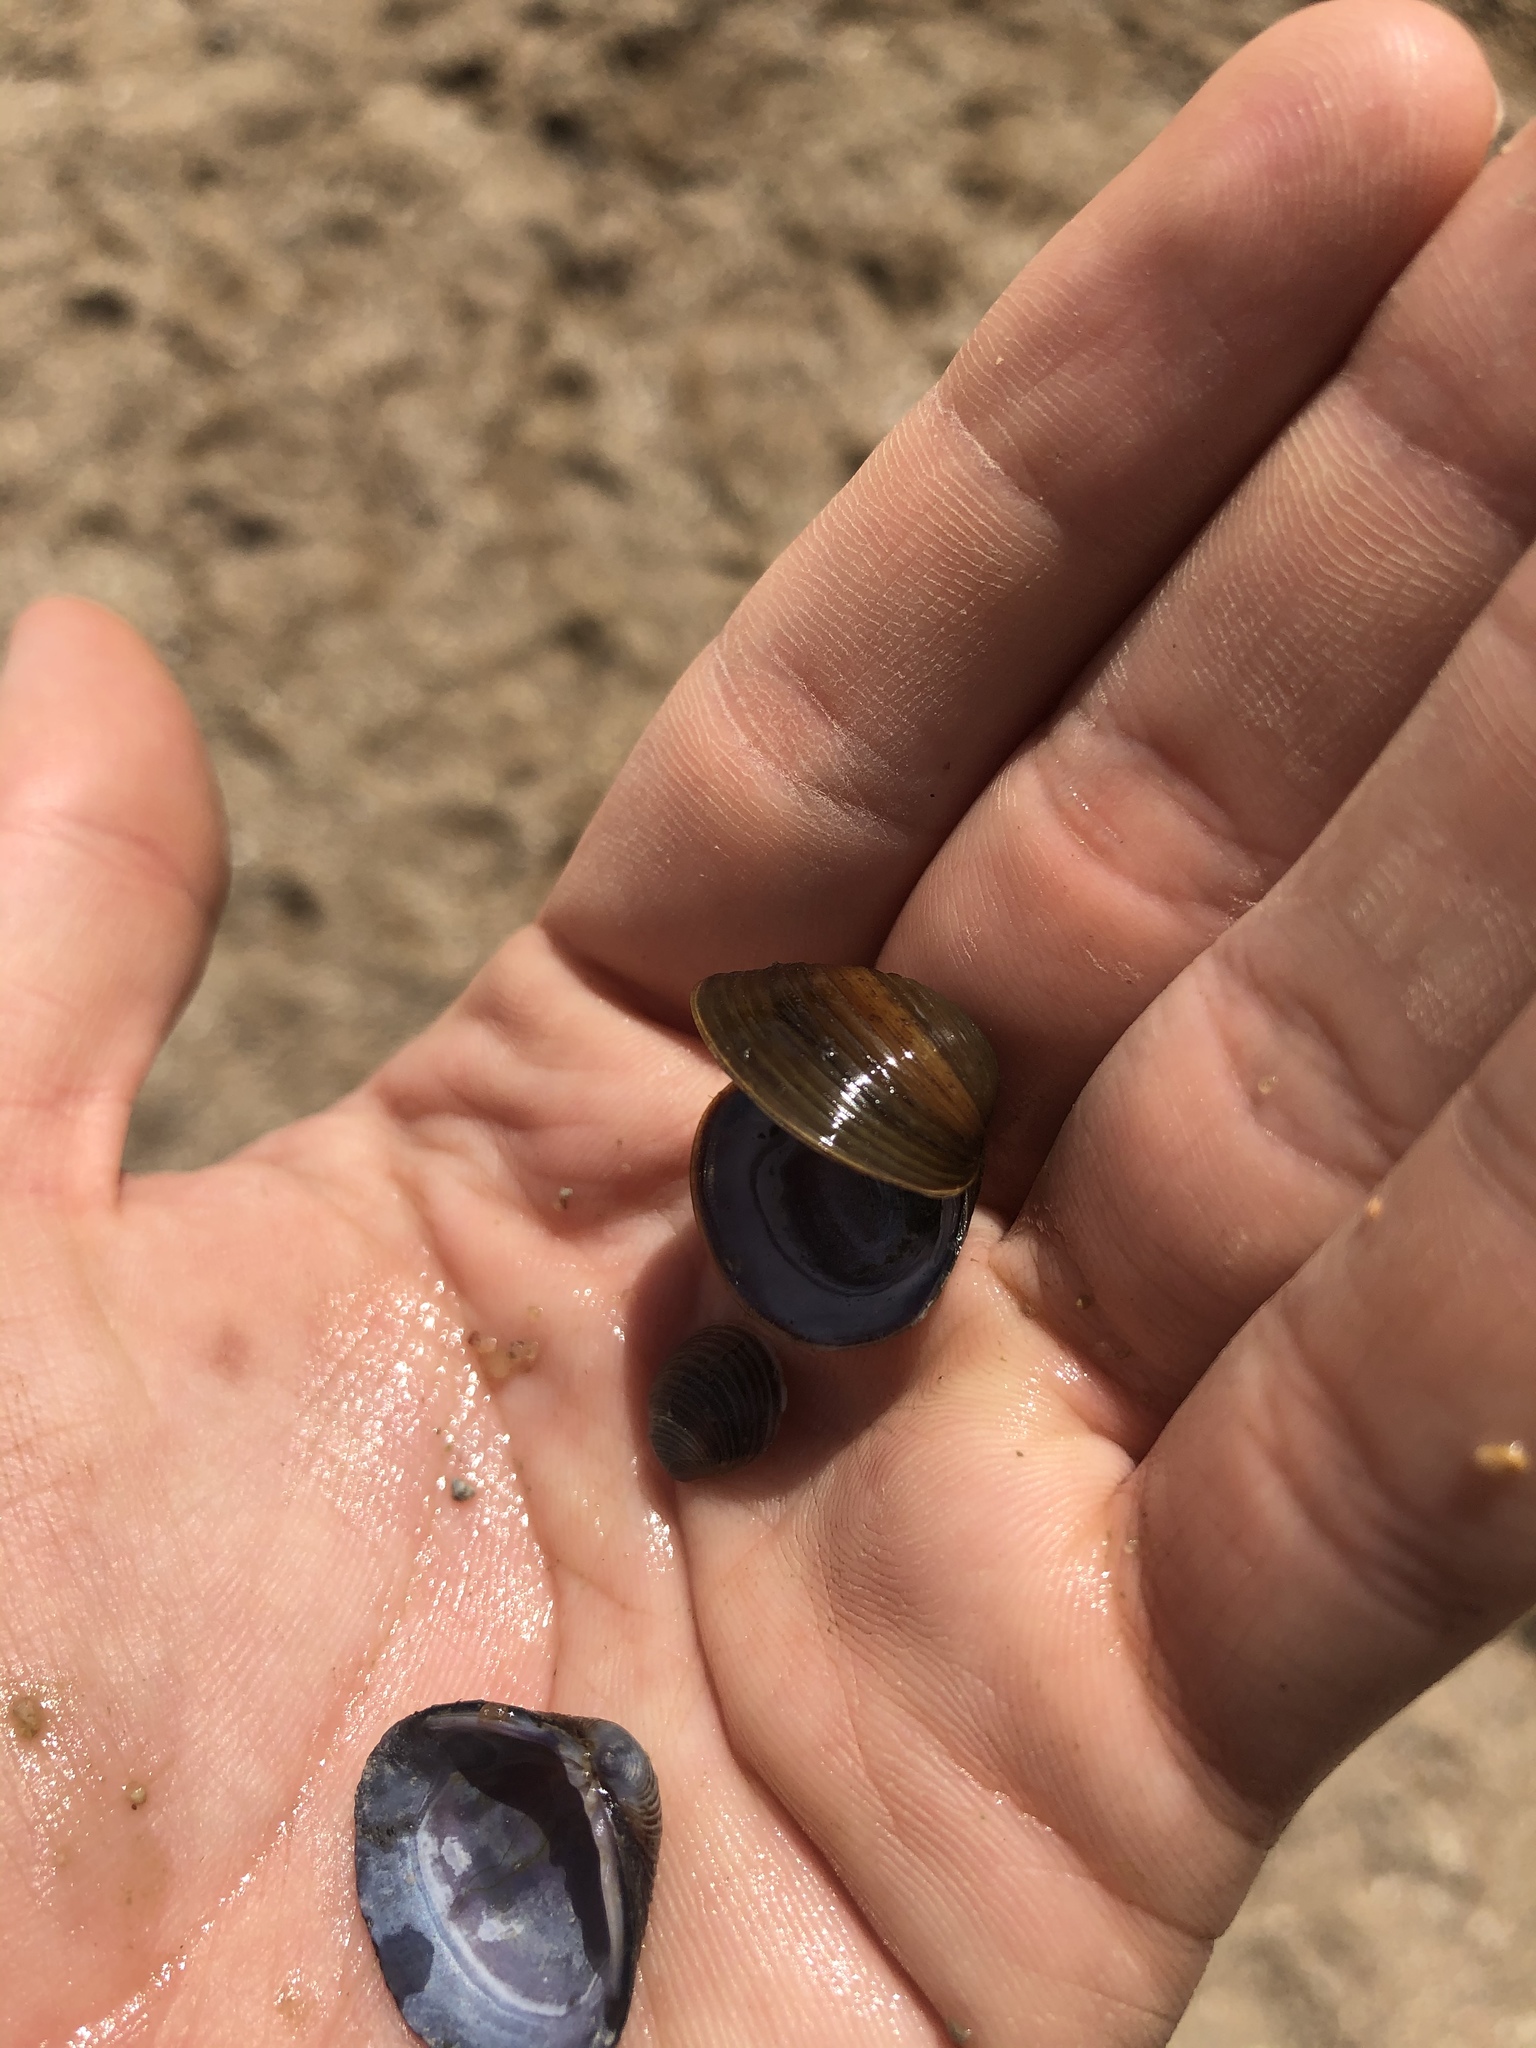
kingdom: Animalia
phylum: Mollusca
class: Bivalvia
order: Venerida
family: Cyrenidae
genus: Corbicula
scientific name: Corbicula fluminea
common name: Asian clam
